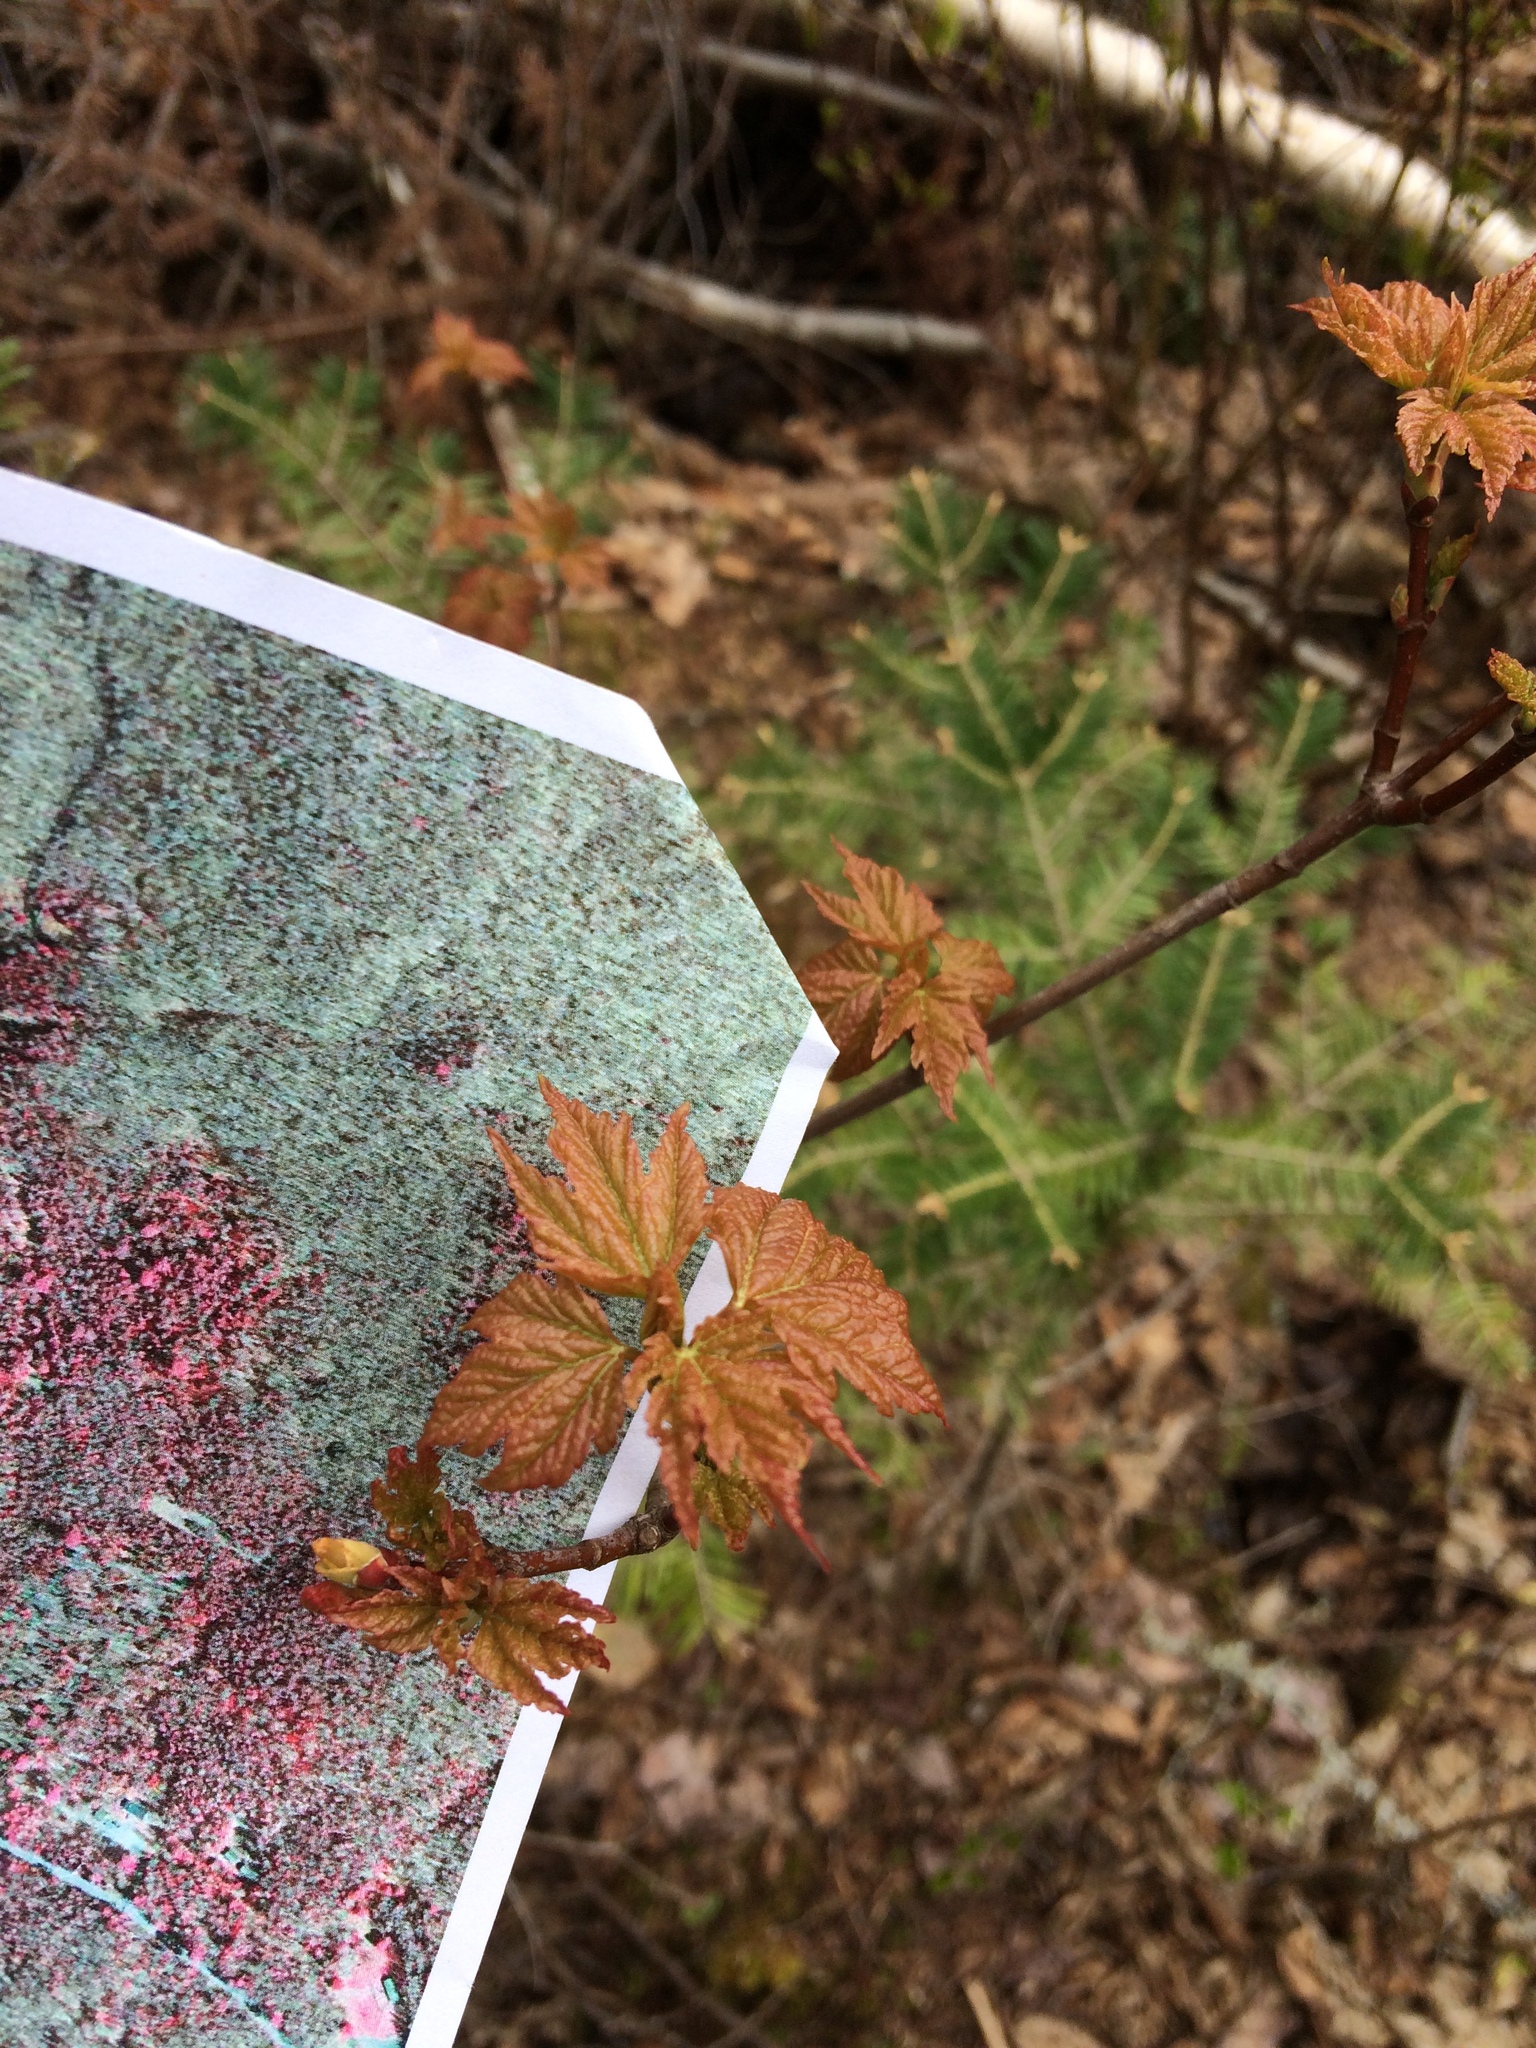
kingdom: Plantae
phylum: Tracheophyta
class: Magnoliopsida
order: Sapindales
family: Sapindaceae
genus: Acer
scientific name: Acer rubrum
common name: Red maple
